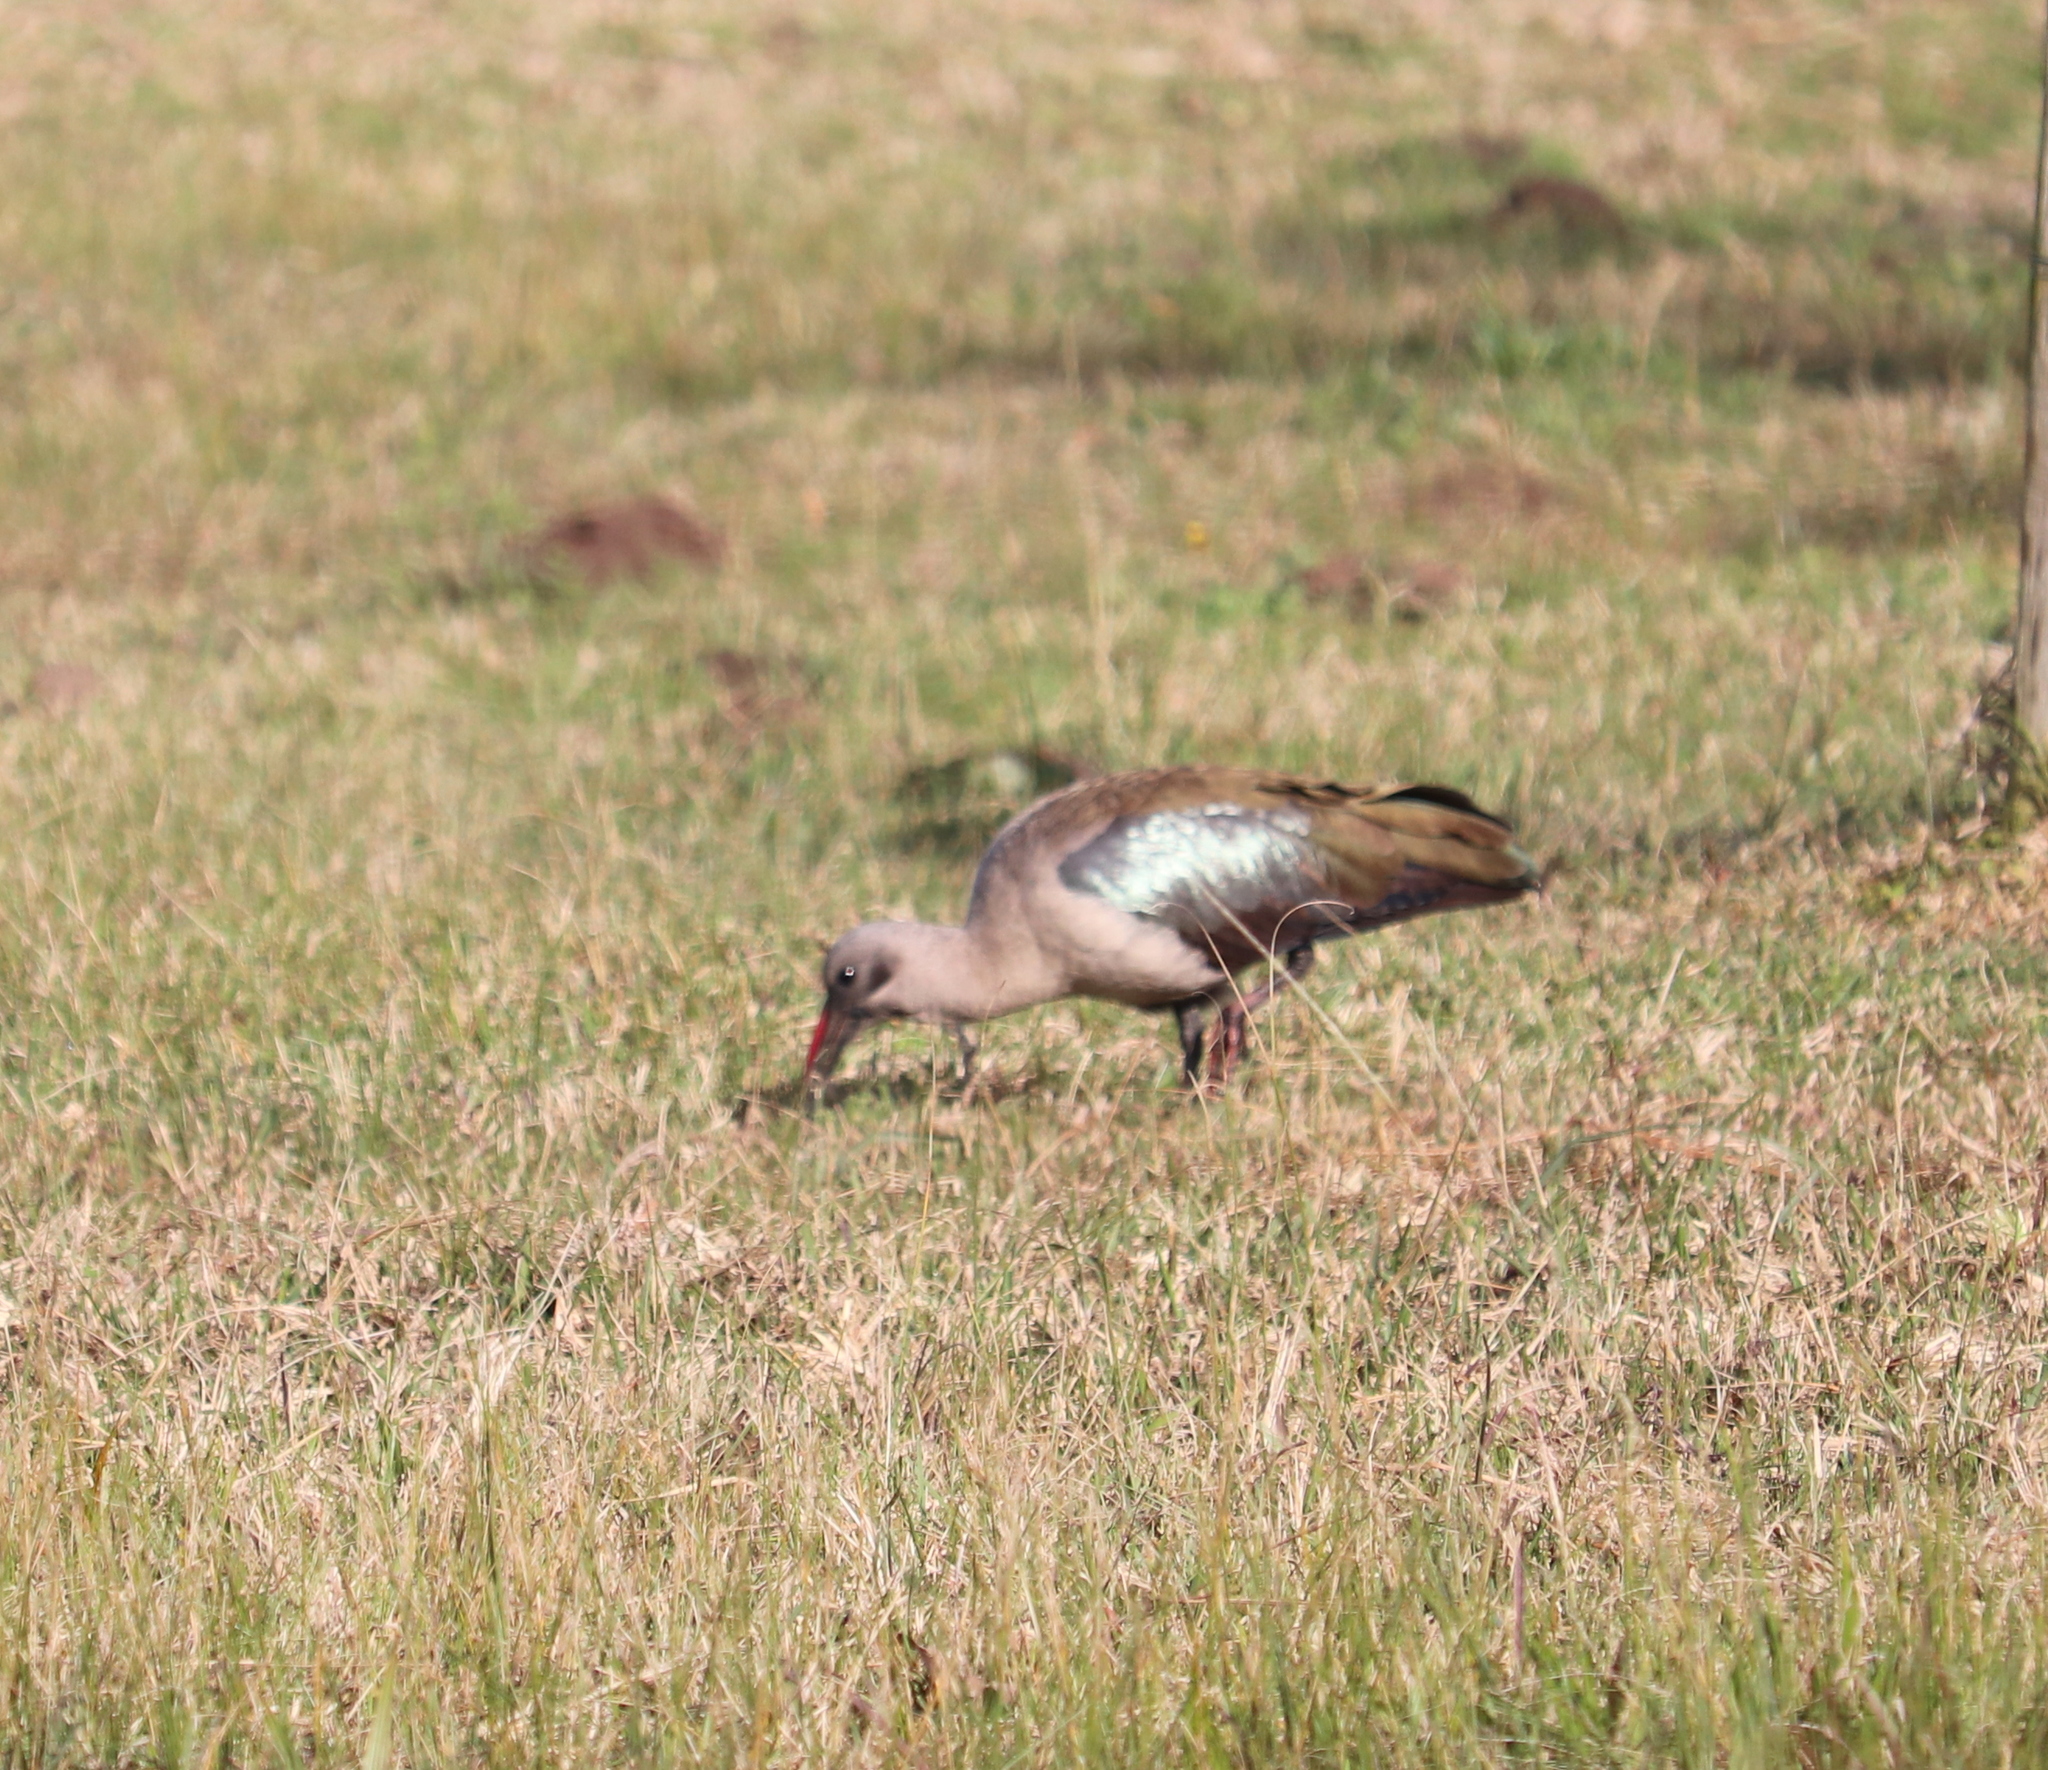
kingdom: Animalia
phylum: Chordata
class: Aves
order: Pelecaniformes
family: Threskiornithidae
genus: Bostrychia
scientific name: Bostrychia hagedash
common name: Hadada ibis
